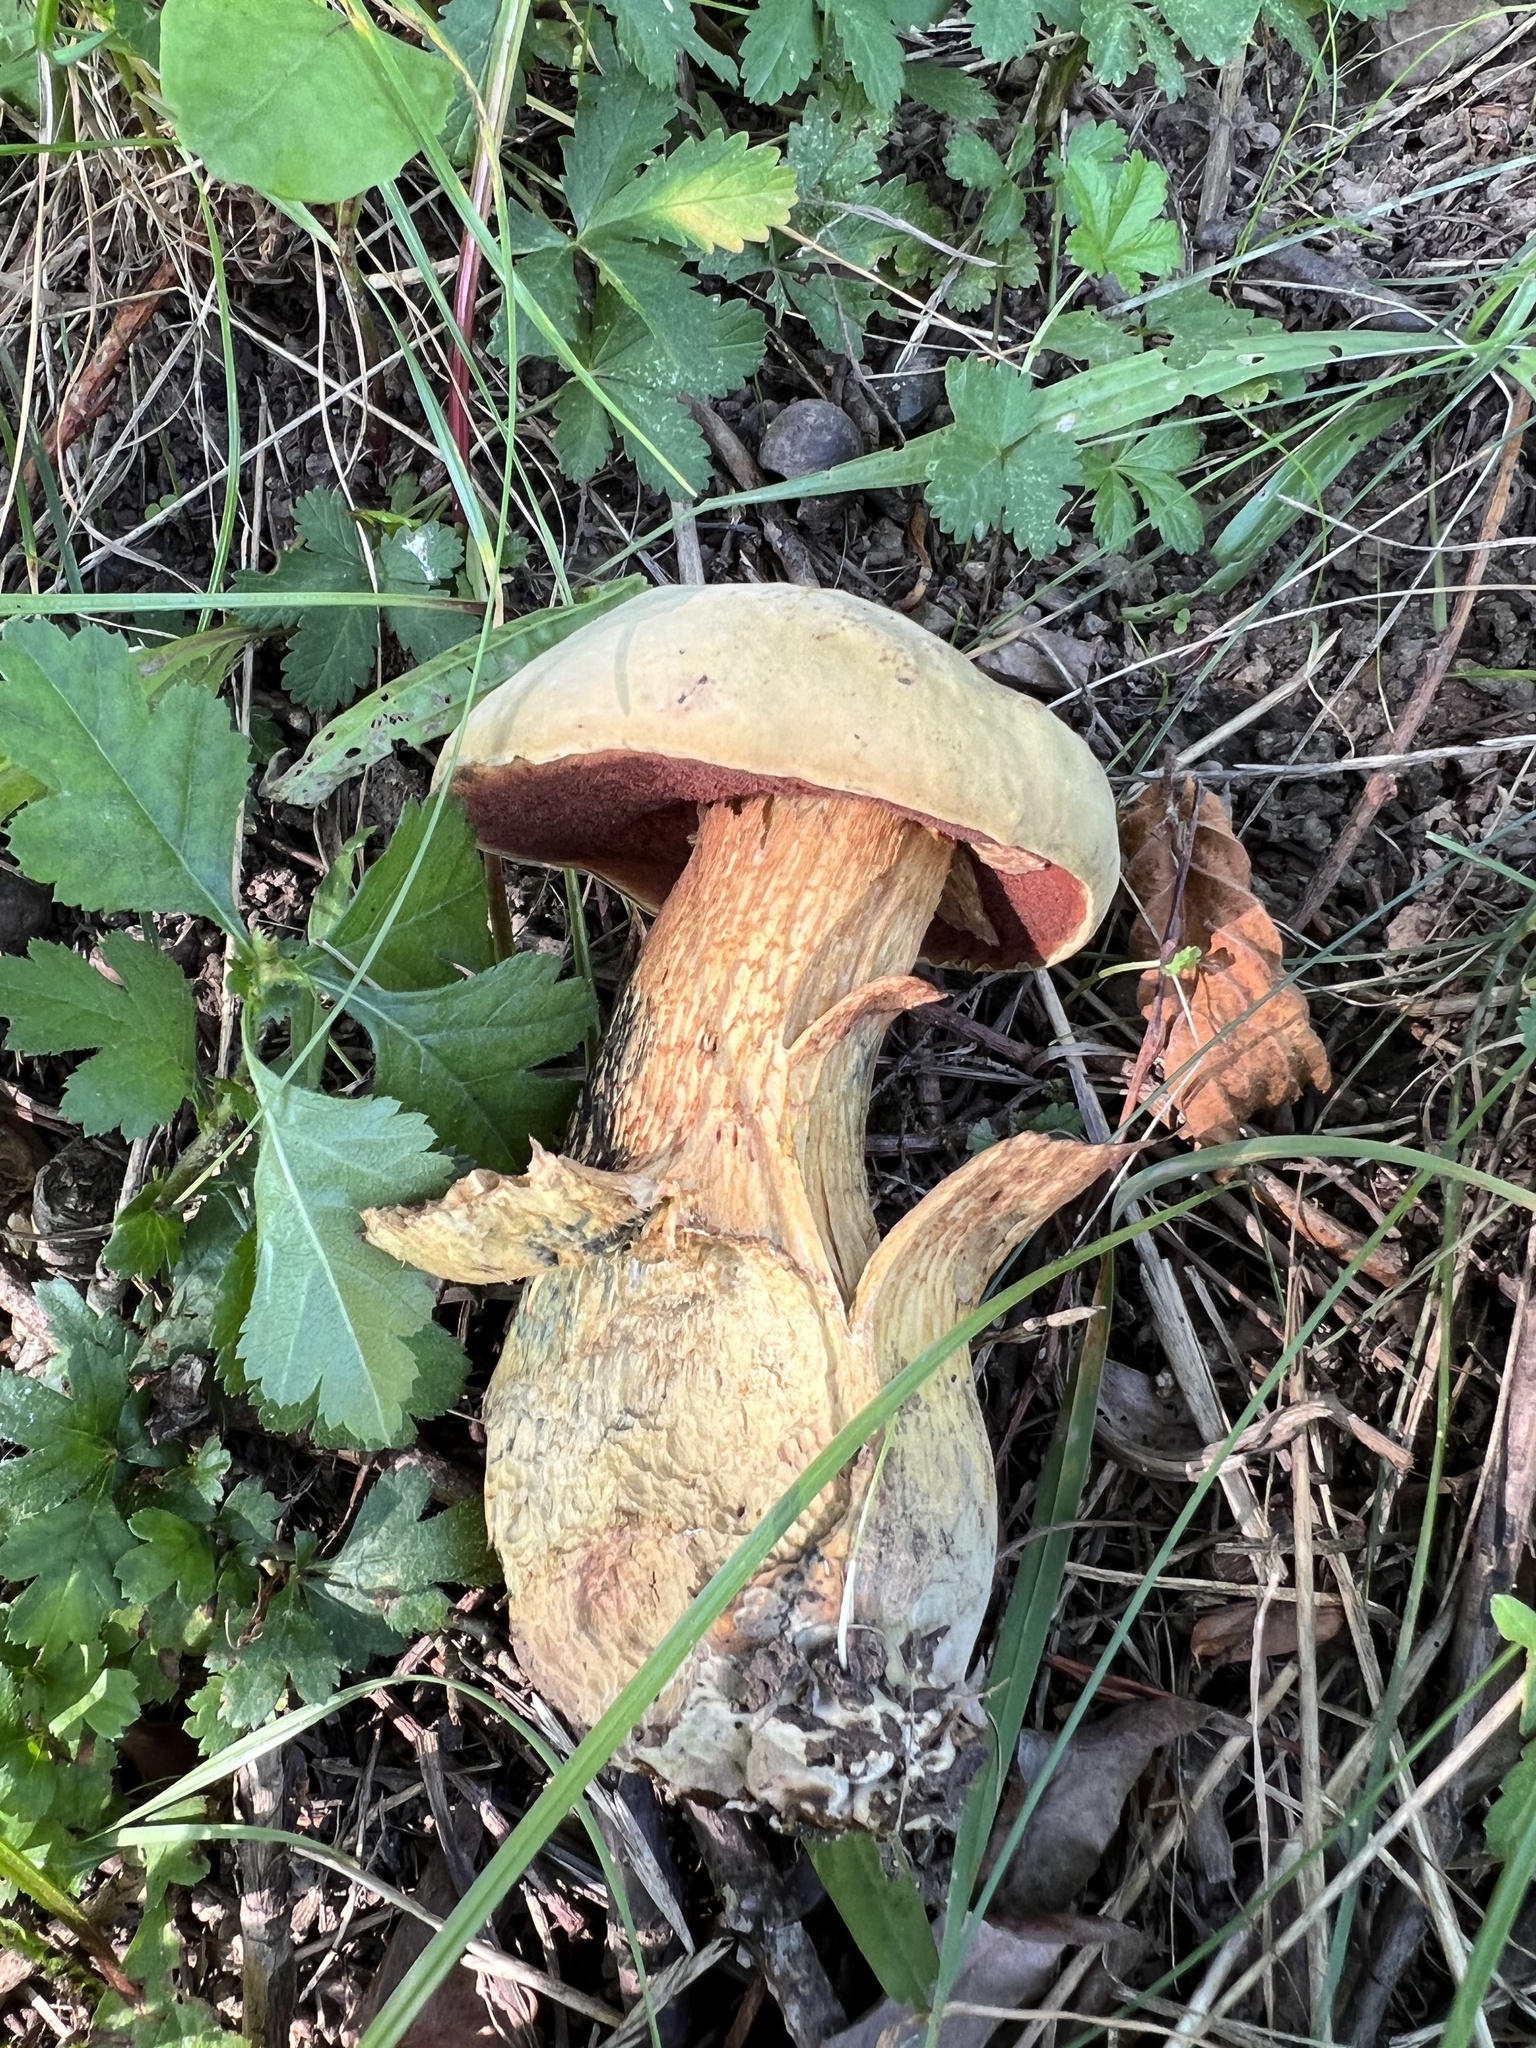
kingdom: Fungi
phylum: Basidiomycota
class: Agaricomycetes
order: Boletales
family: Boletaceae
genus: Suillellus
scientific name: Suillellus luridus
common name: Lurid bolete
